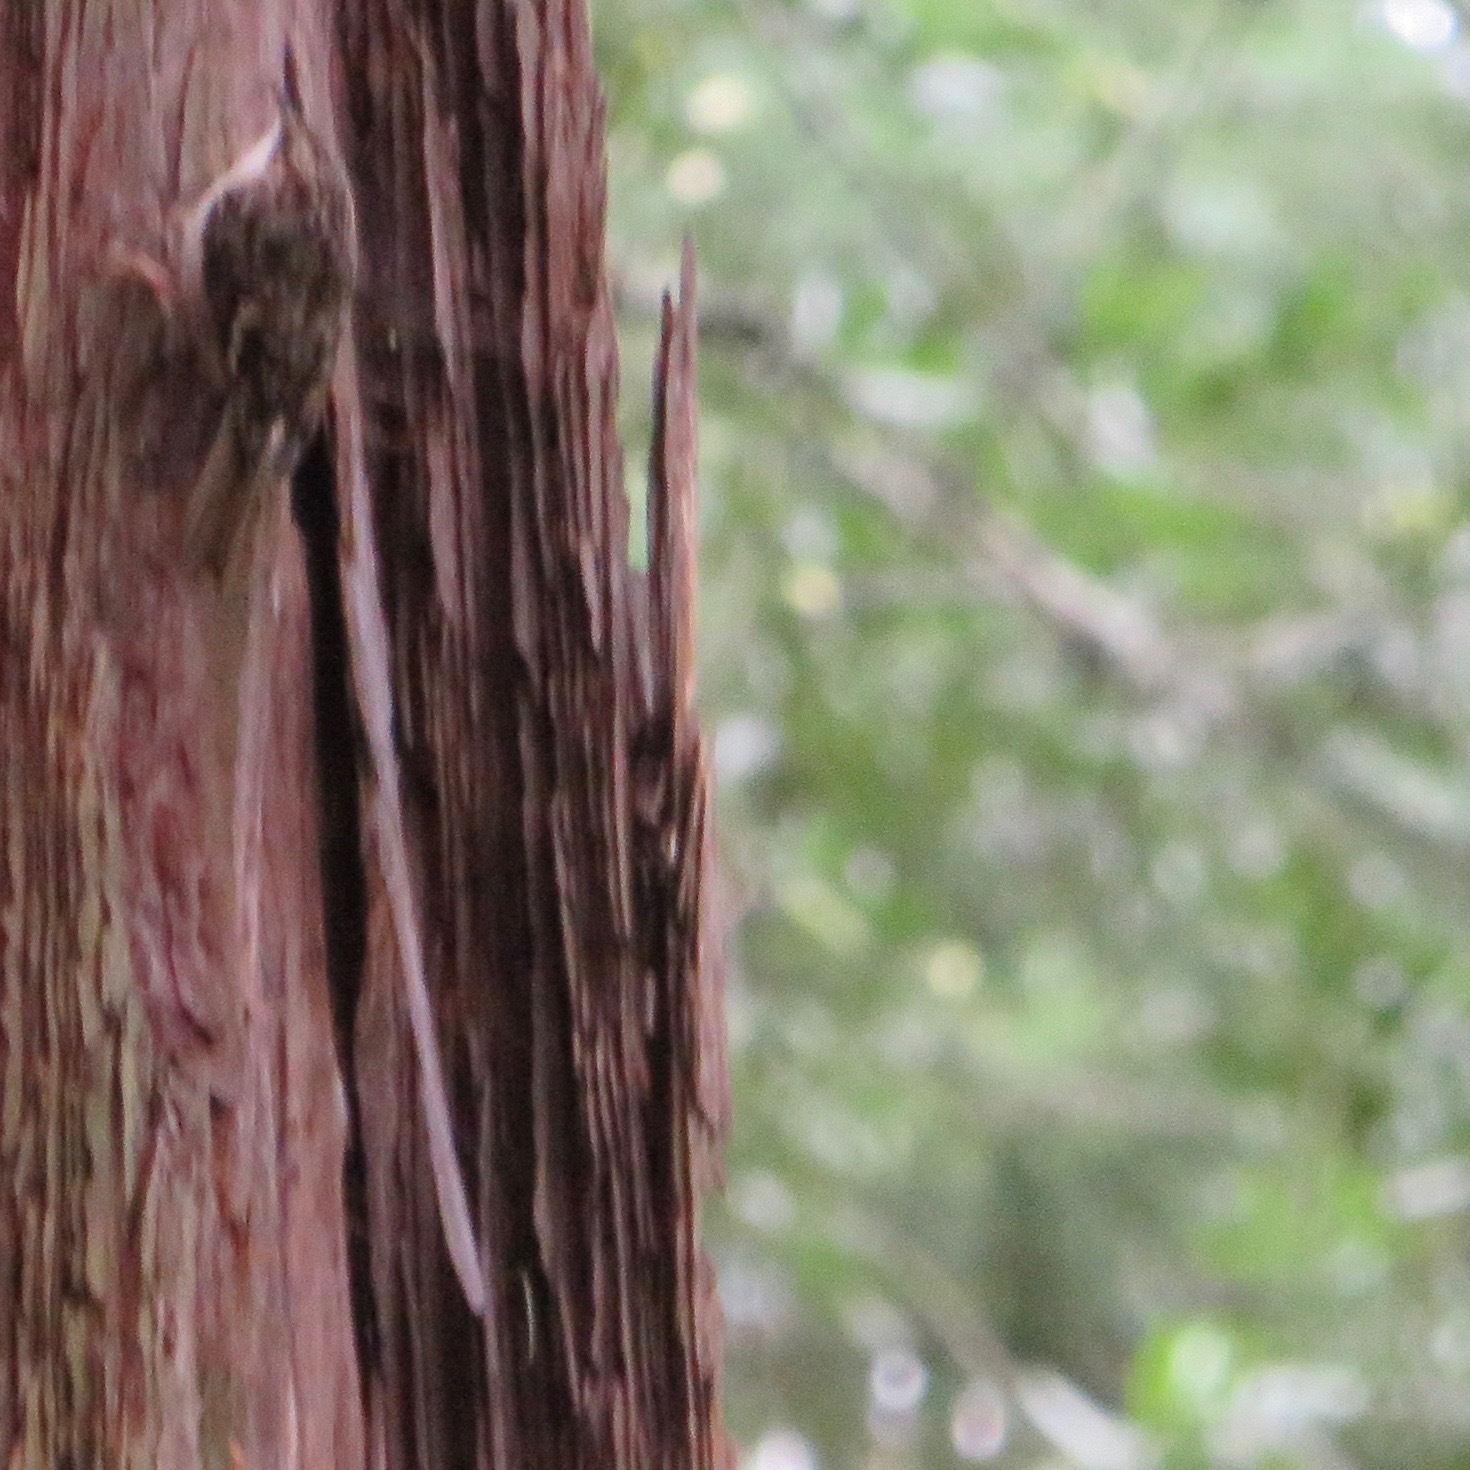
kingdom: Animalia
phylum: Chordata
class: Aves
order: Passeriformes
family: Certhiidae
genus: Certhia
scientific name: Certhia americana
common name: Brown creeper
